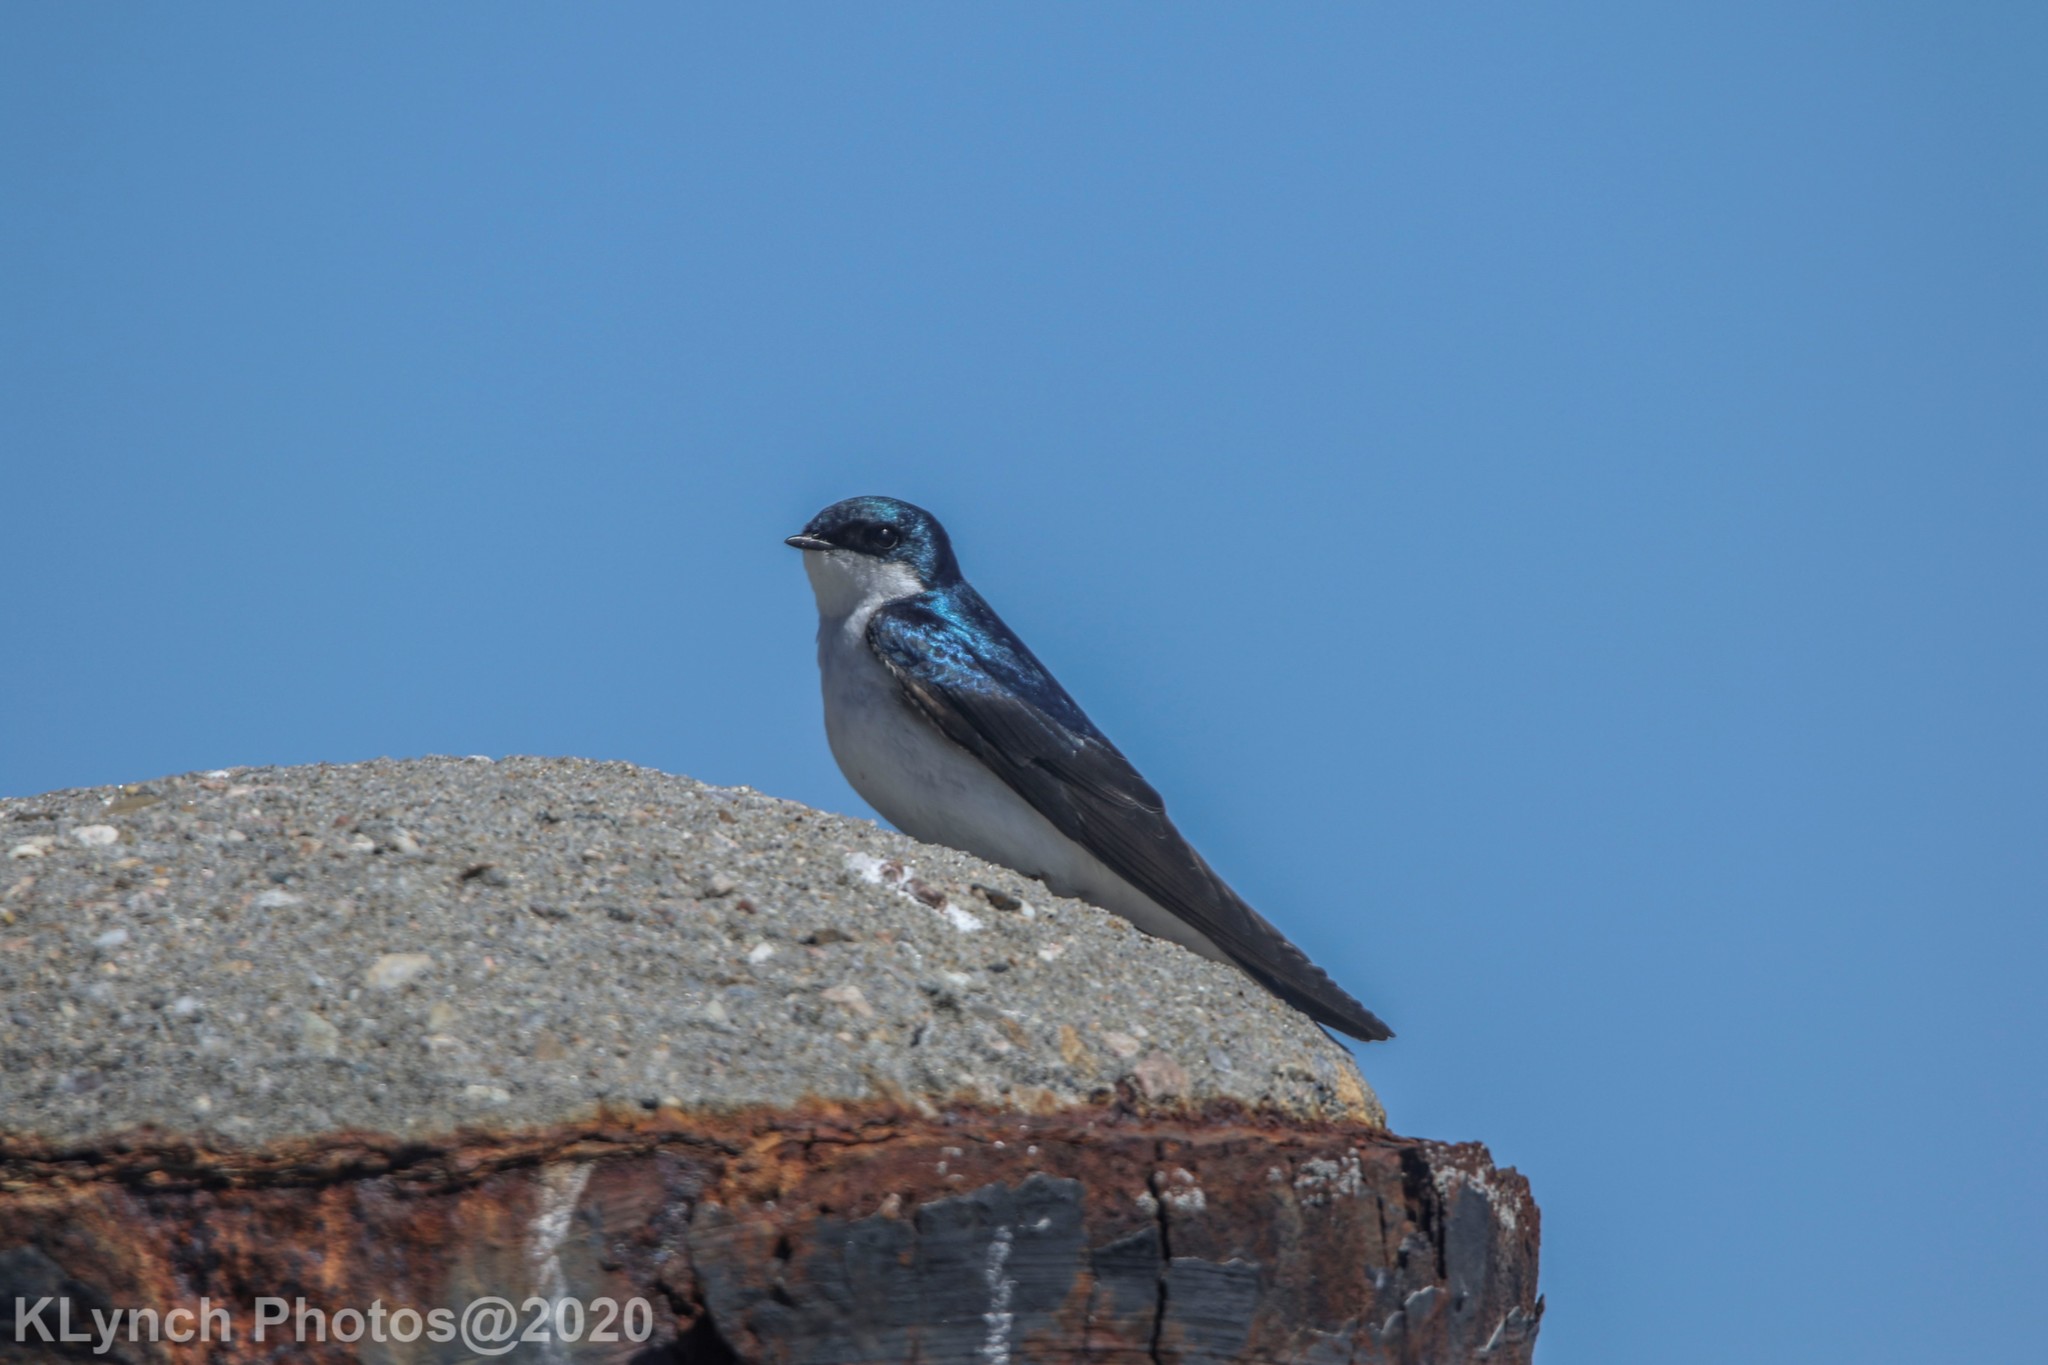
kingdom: Animalia
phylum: Chordata
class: Aves
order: Passeriformes
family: Hirundinidae
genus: Tachycineta
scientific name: Tachycineta bicolor
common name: Tree swallow
